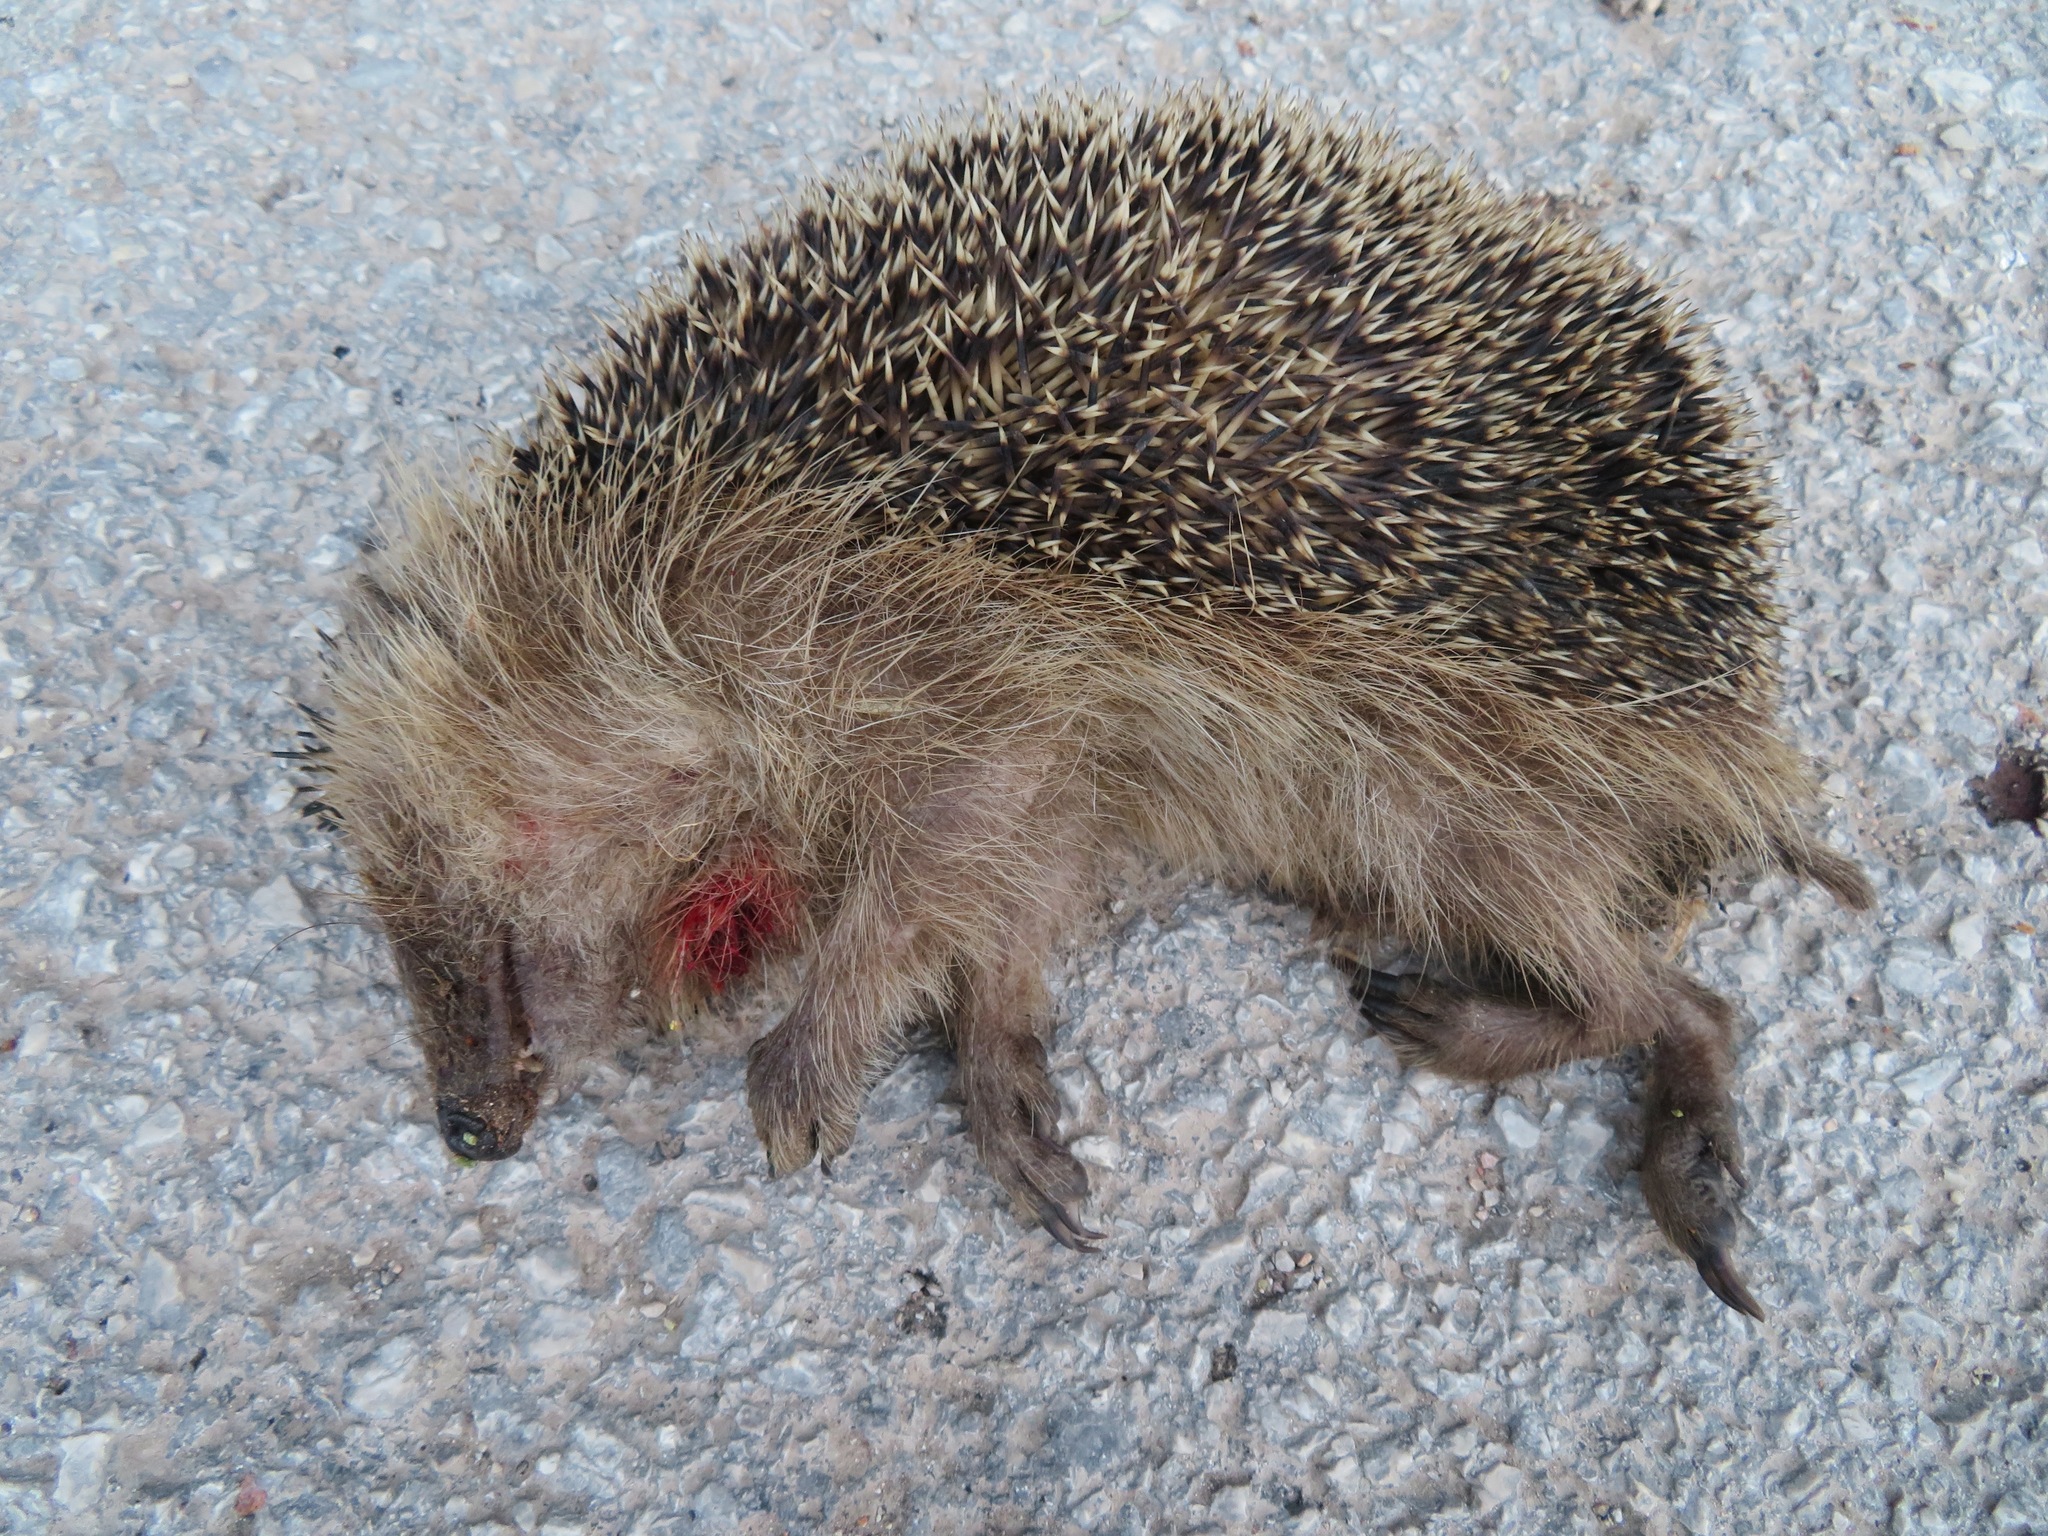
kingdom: Animalia
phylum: Chordata
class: Mammalia
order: Erinaceomorpha
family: Erinaceidae
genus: Erinaceus
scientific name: Erinaceus europaeus
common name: West european hedgehog
